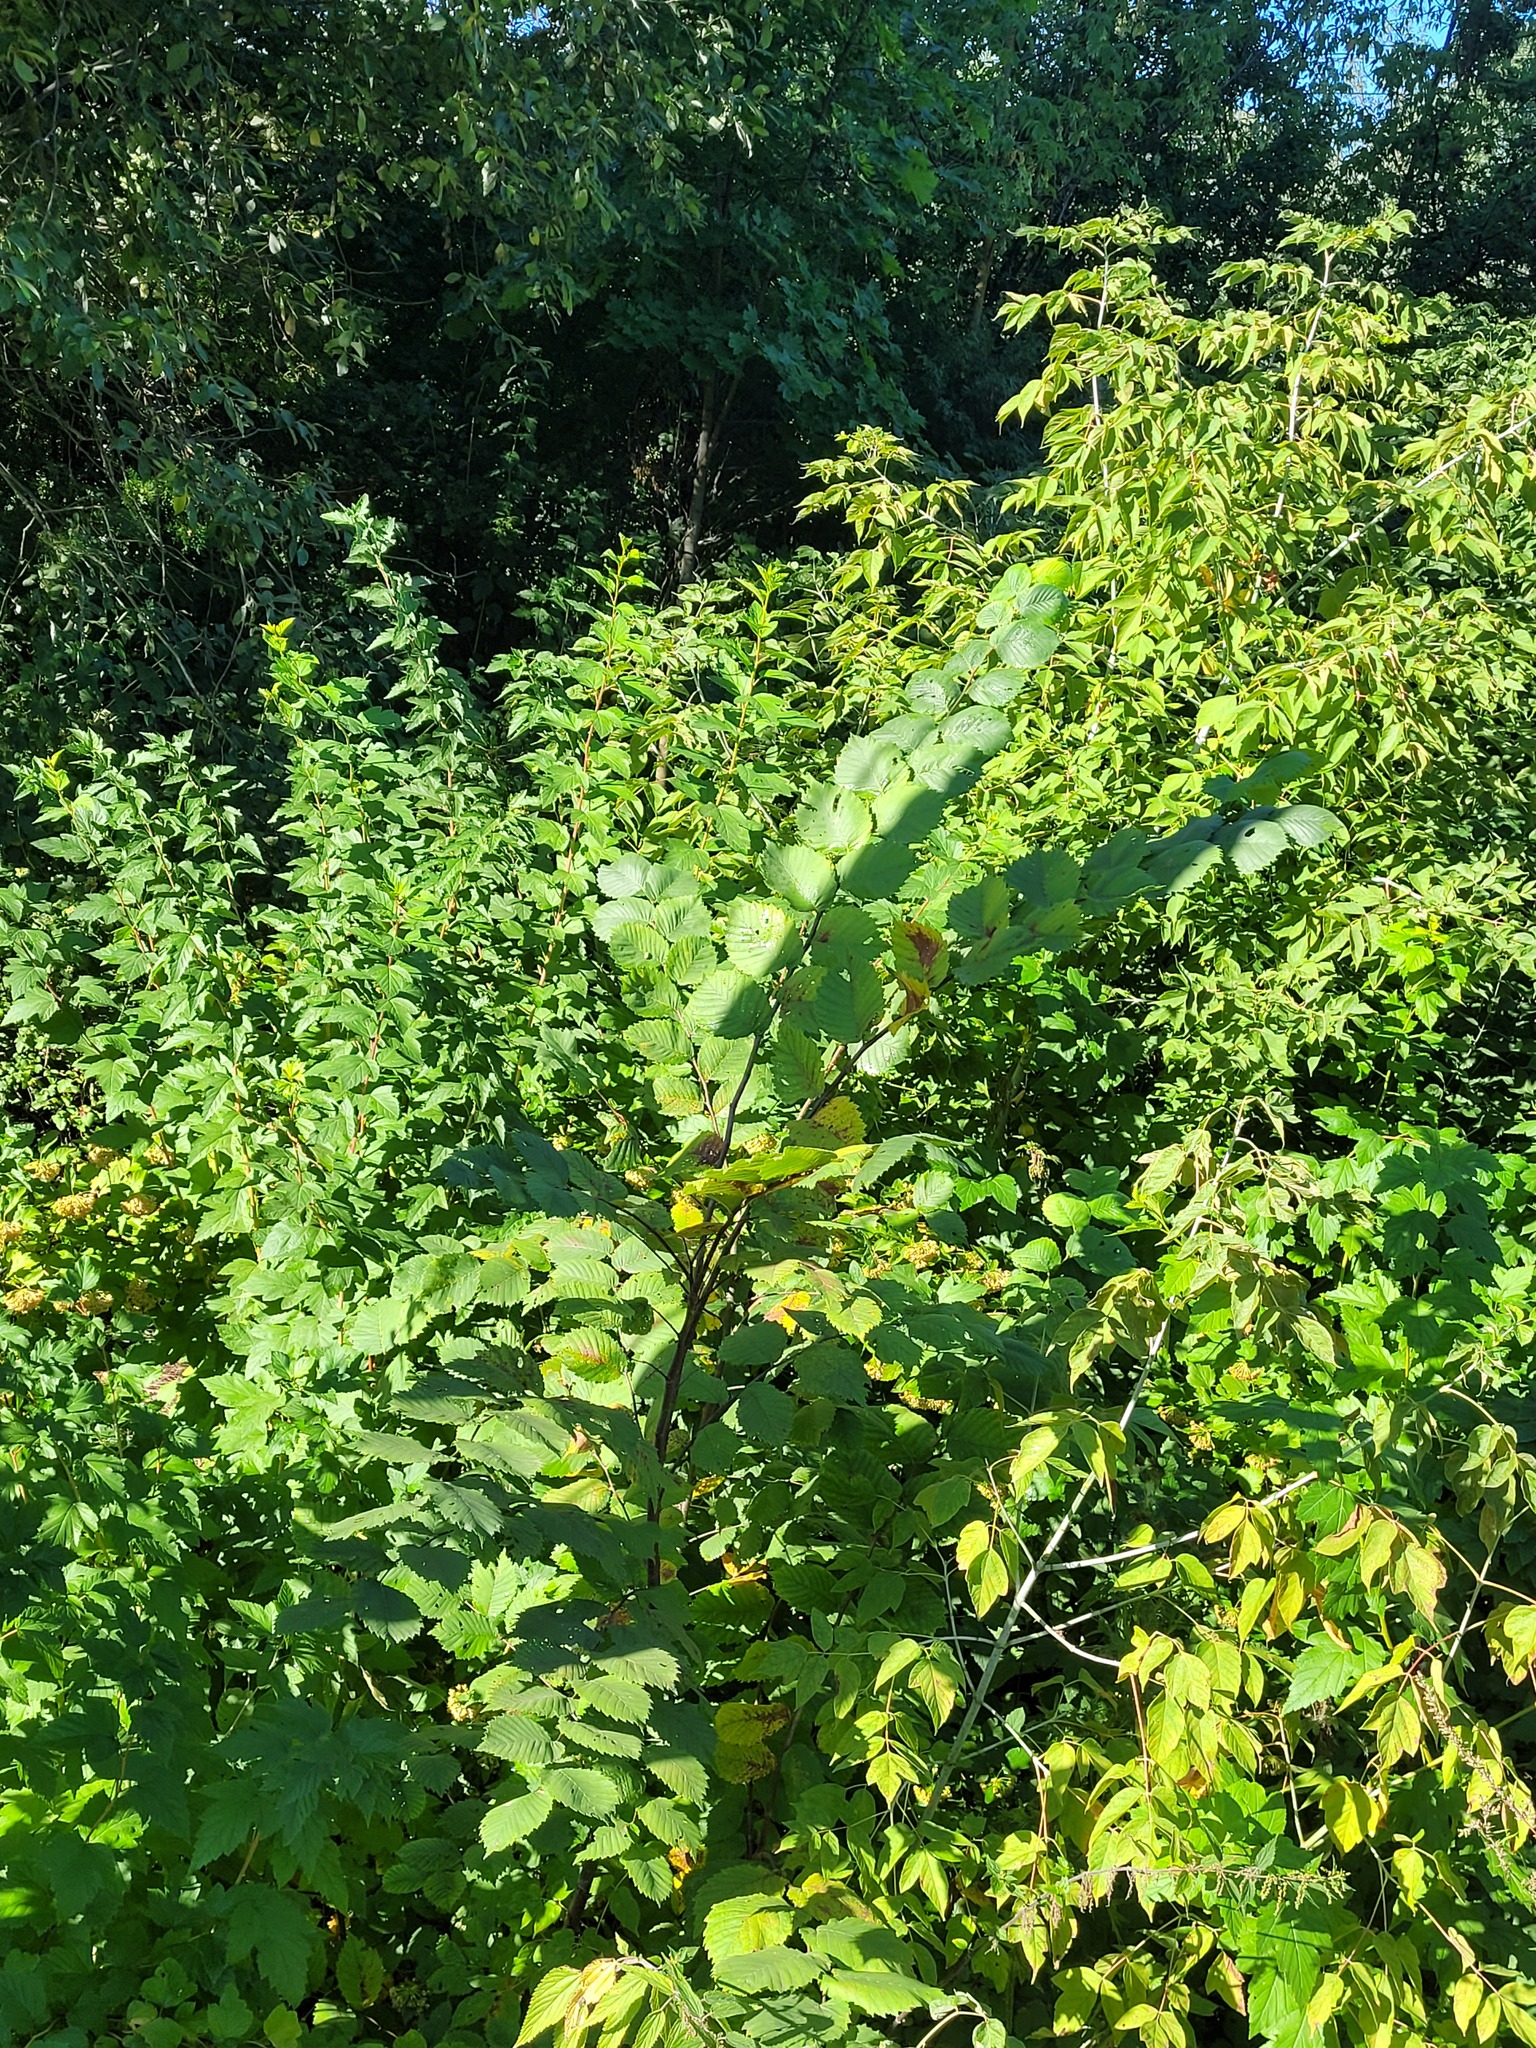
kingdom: Plantae
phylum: Tracheophyta
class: Magnoliopsida
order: Rosales
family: Ulmaceae
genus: Ulmus
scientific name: Ulmus laevis
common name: European white-elm
